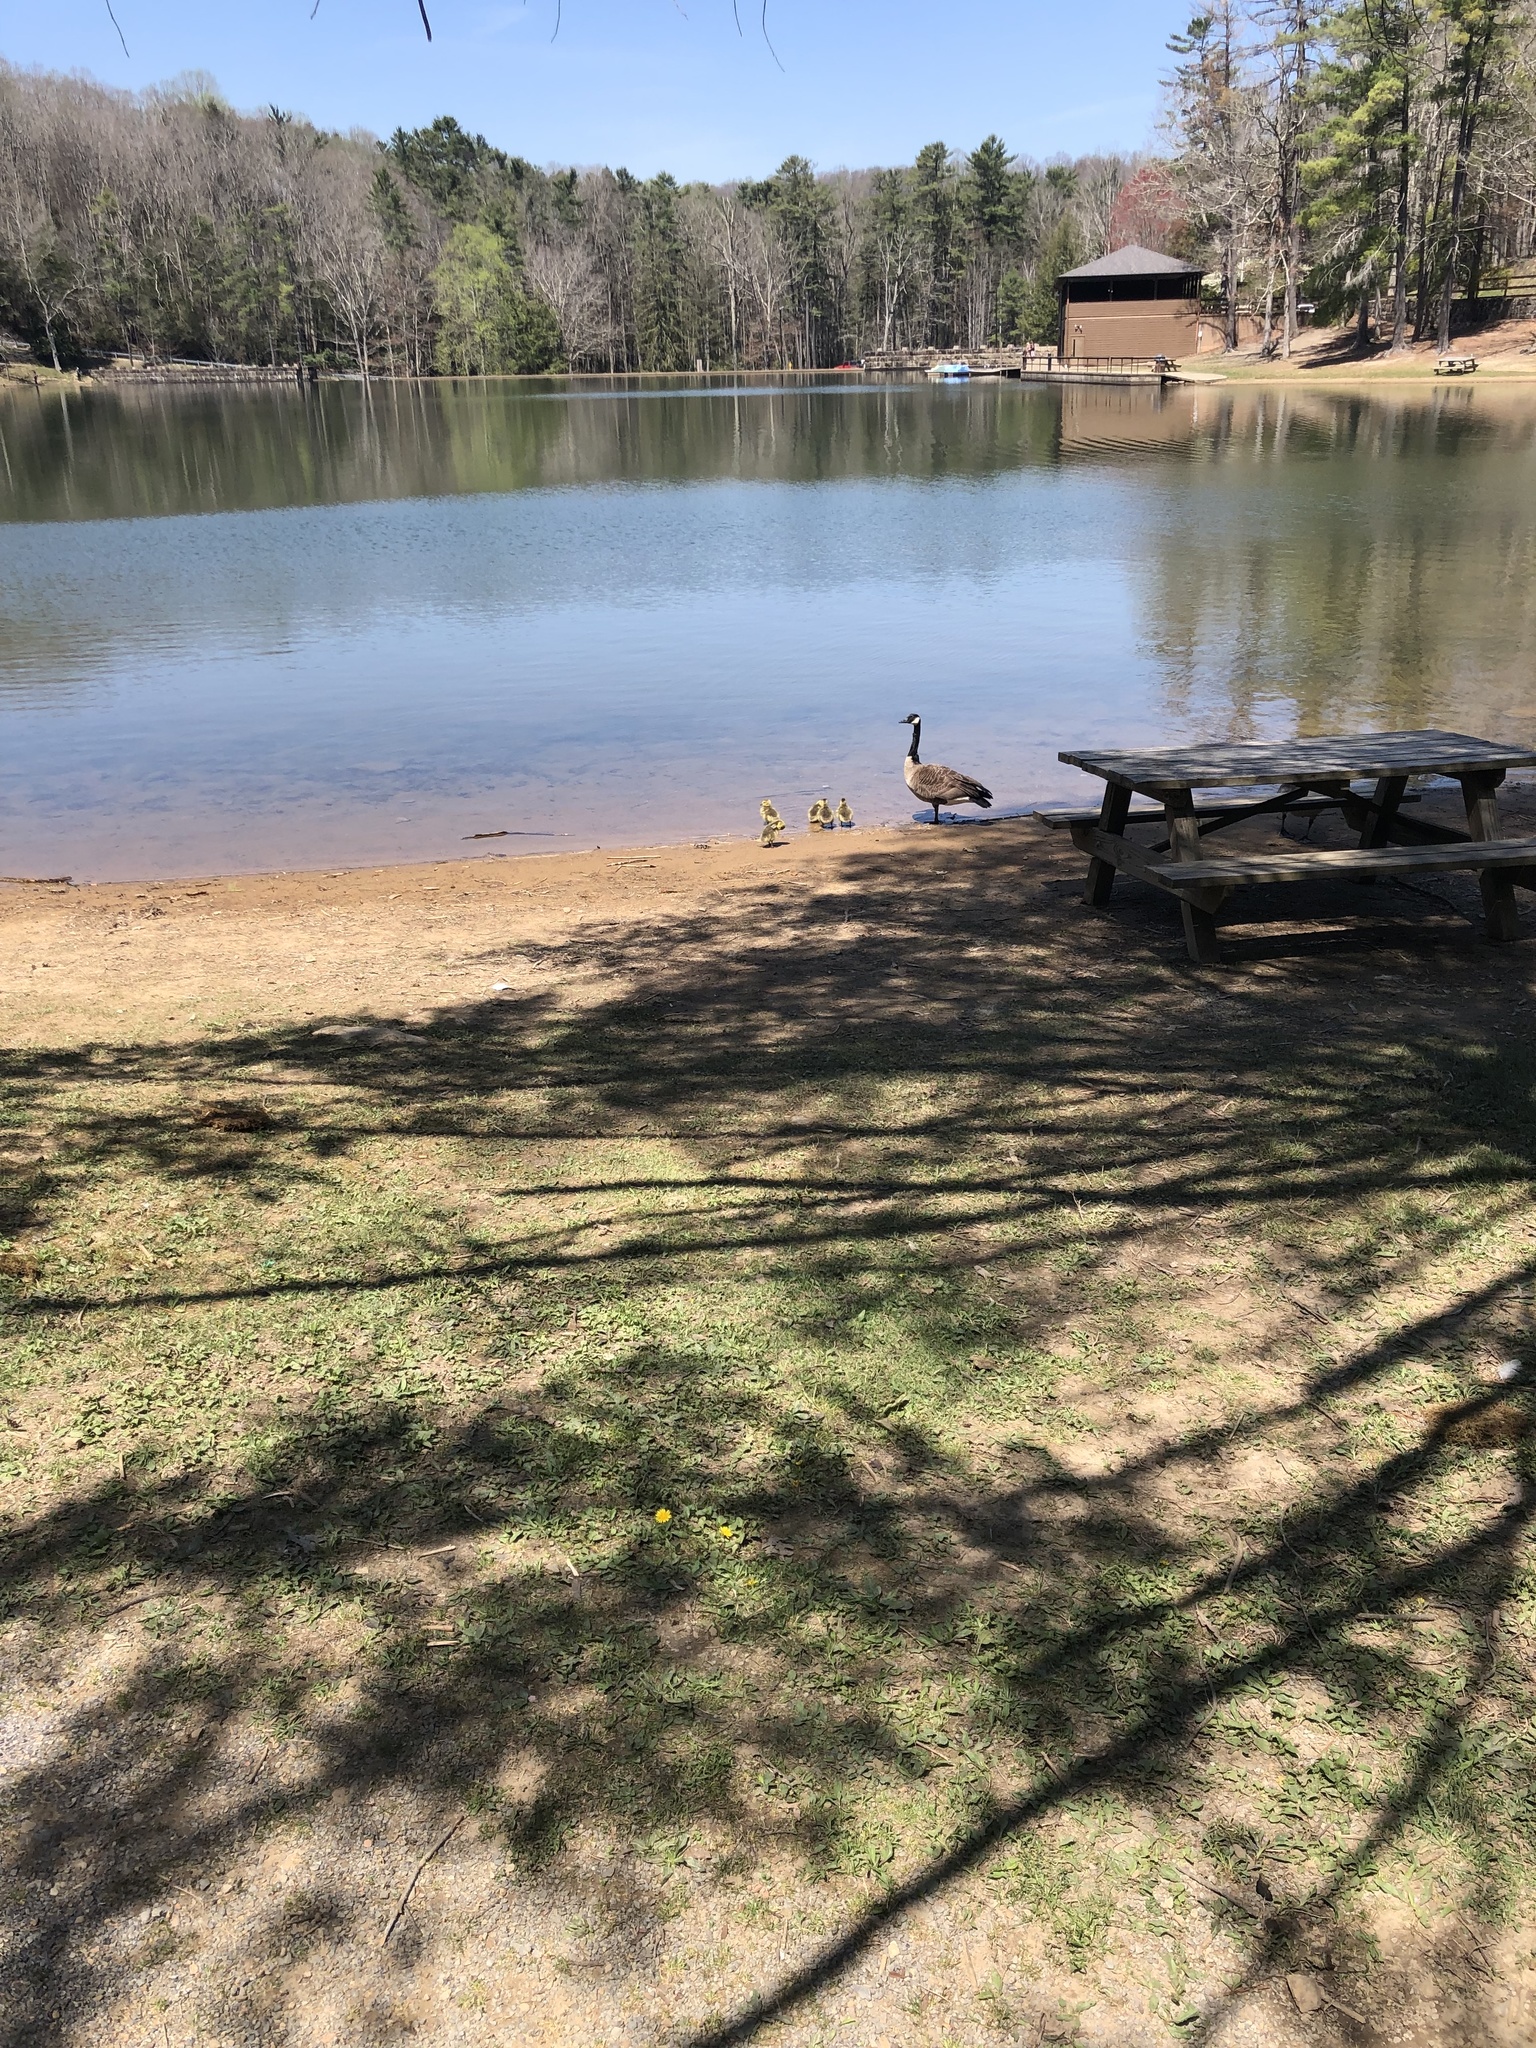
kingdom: Animalia
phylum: Chordata
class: Aves
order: Anseriformes
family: Anatidae
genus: Branta
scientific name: Branta canadensis
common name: Canada goose
